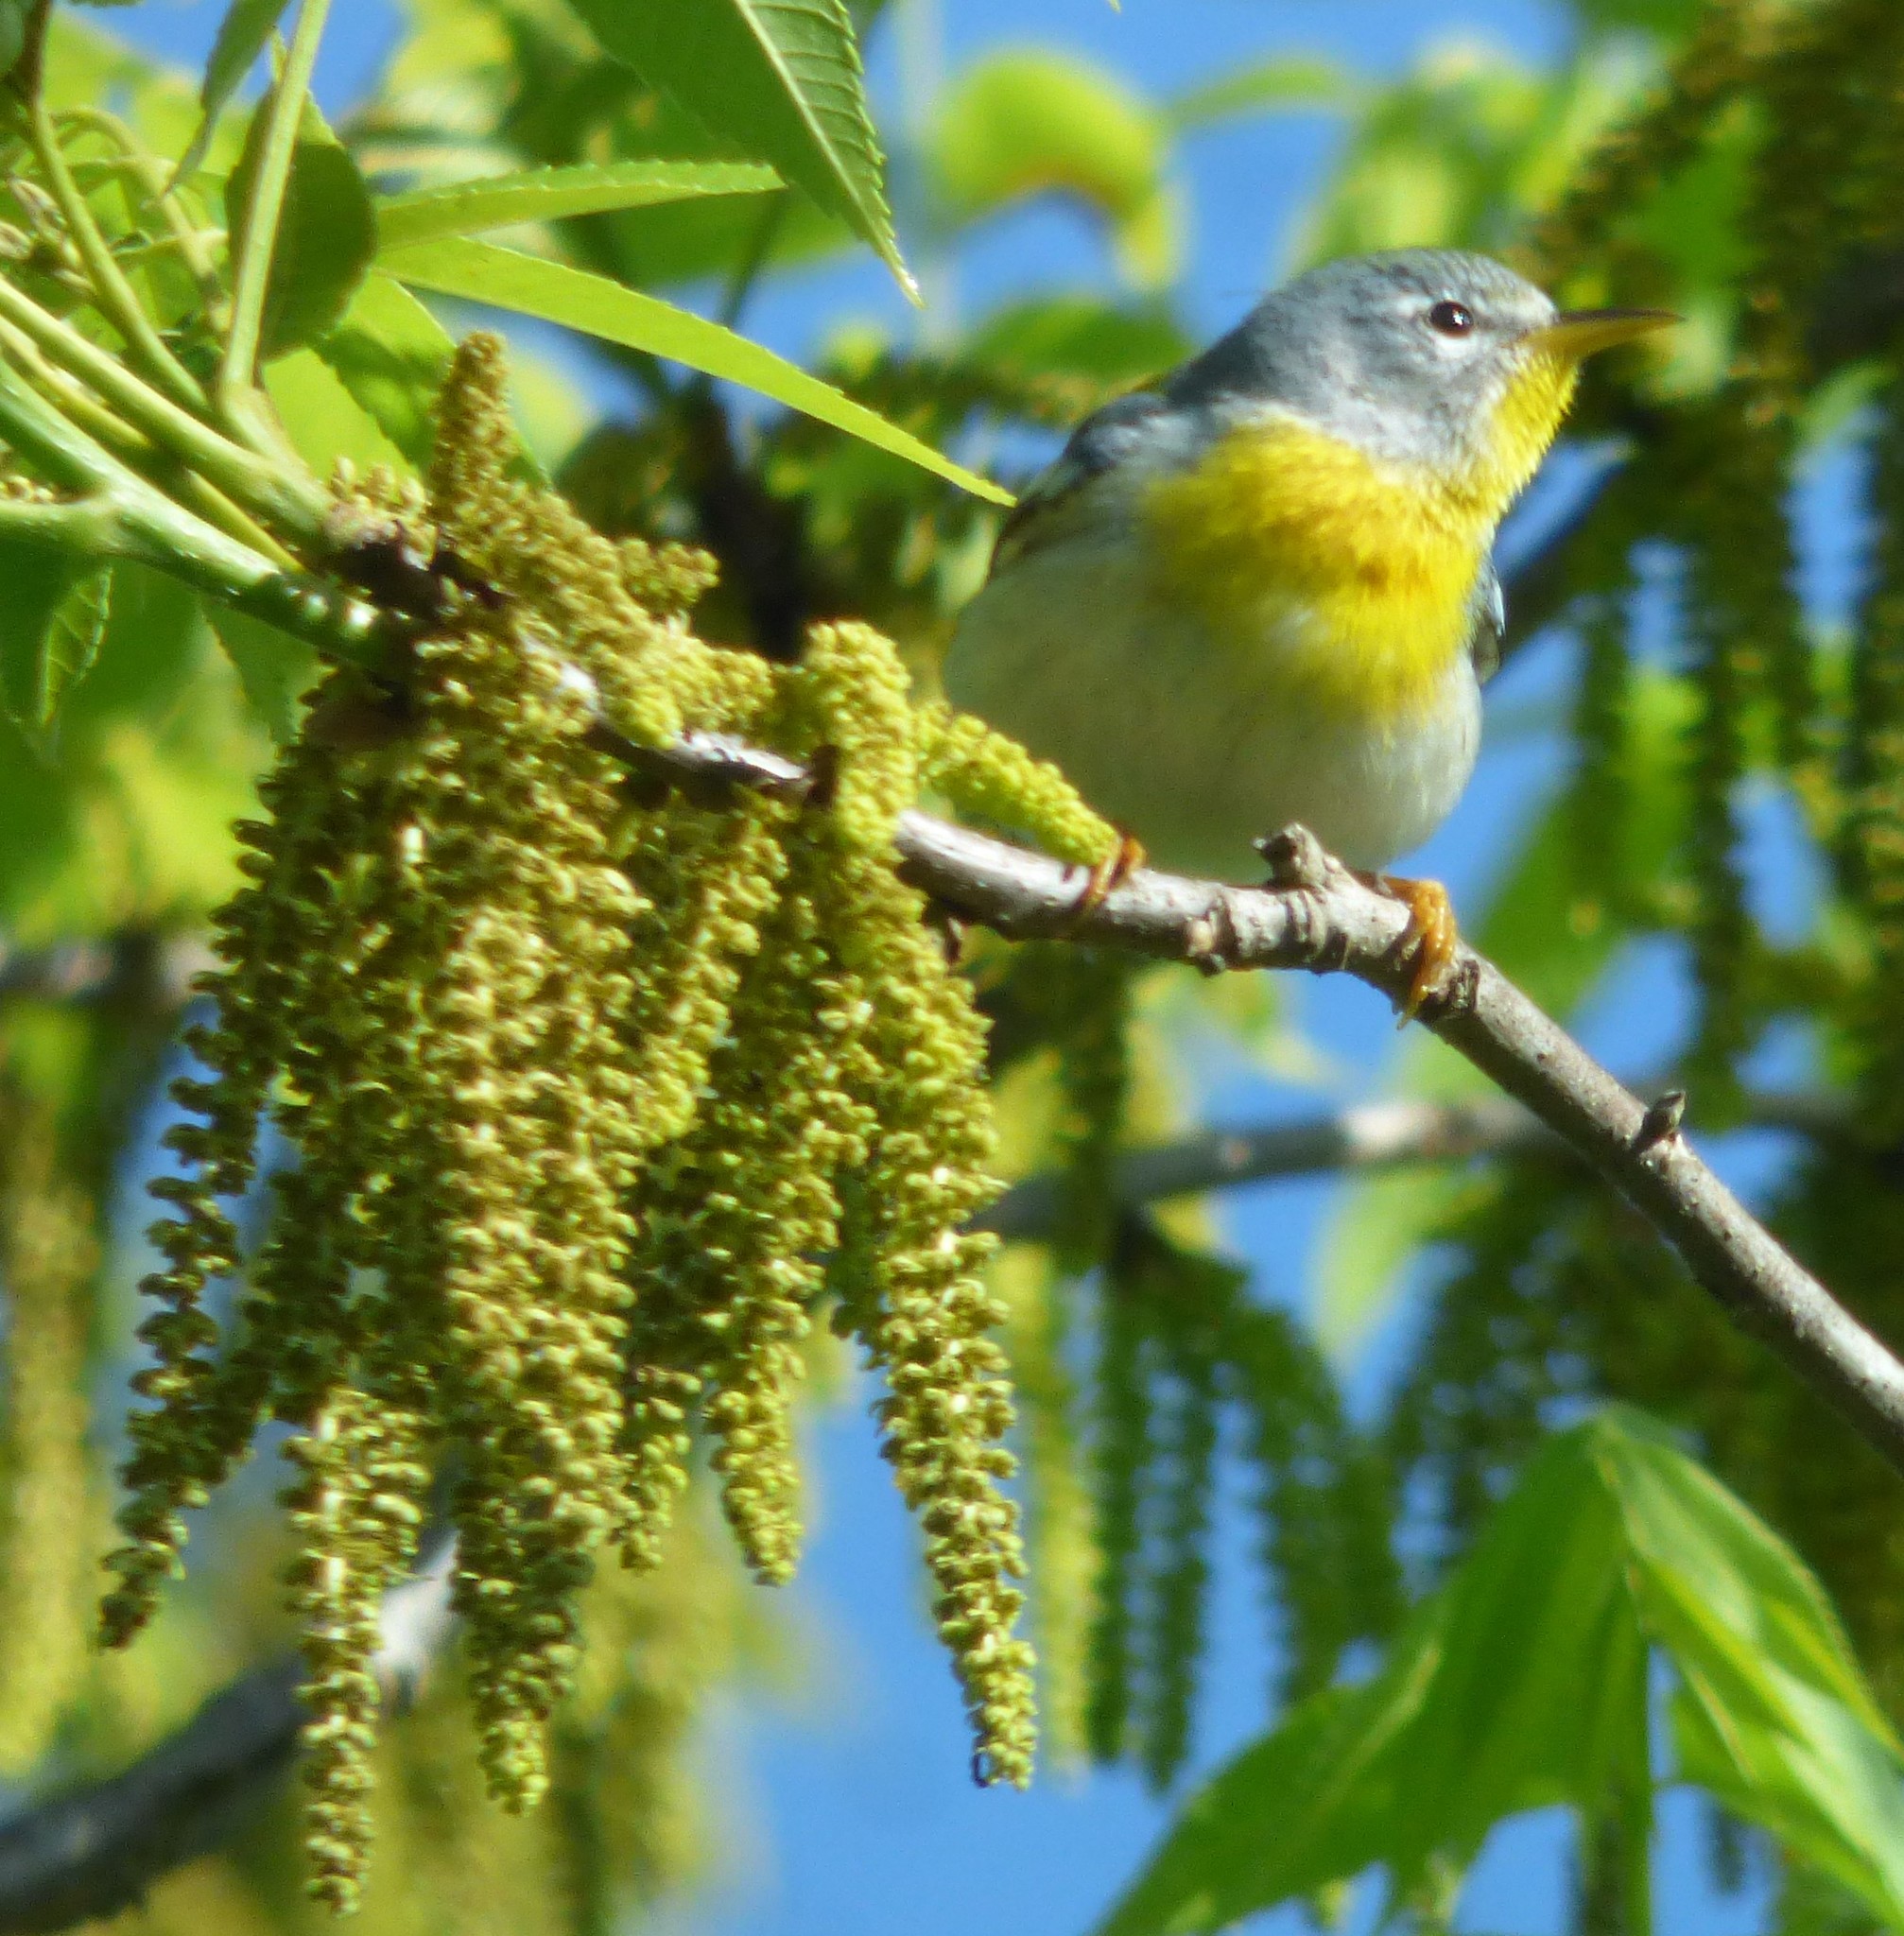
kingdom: Animalia
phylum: Chordata
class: Aves
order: Passeriformes
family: Parulidae
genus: Setophaga
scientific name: Setophaga americana
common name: Northern parula
